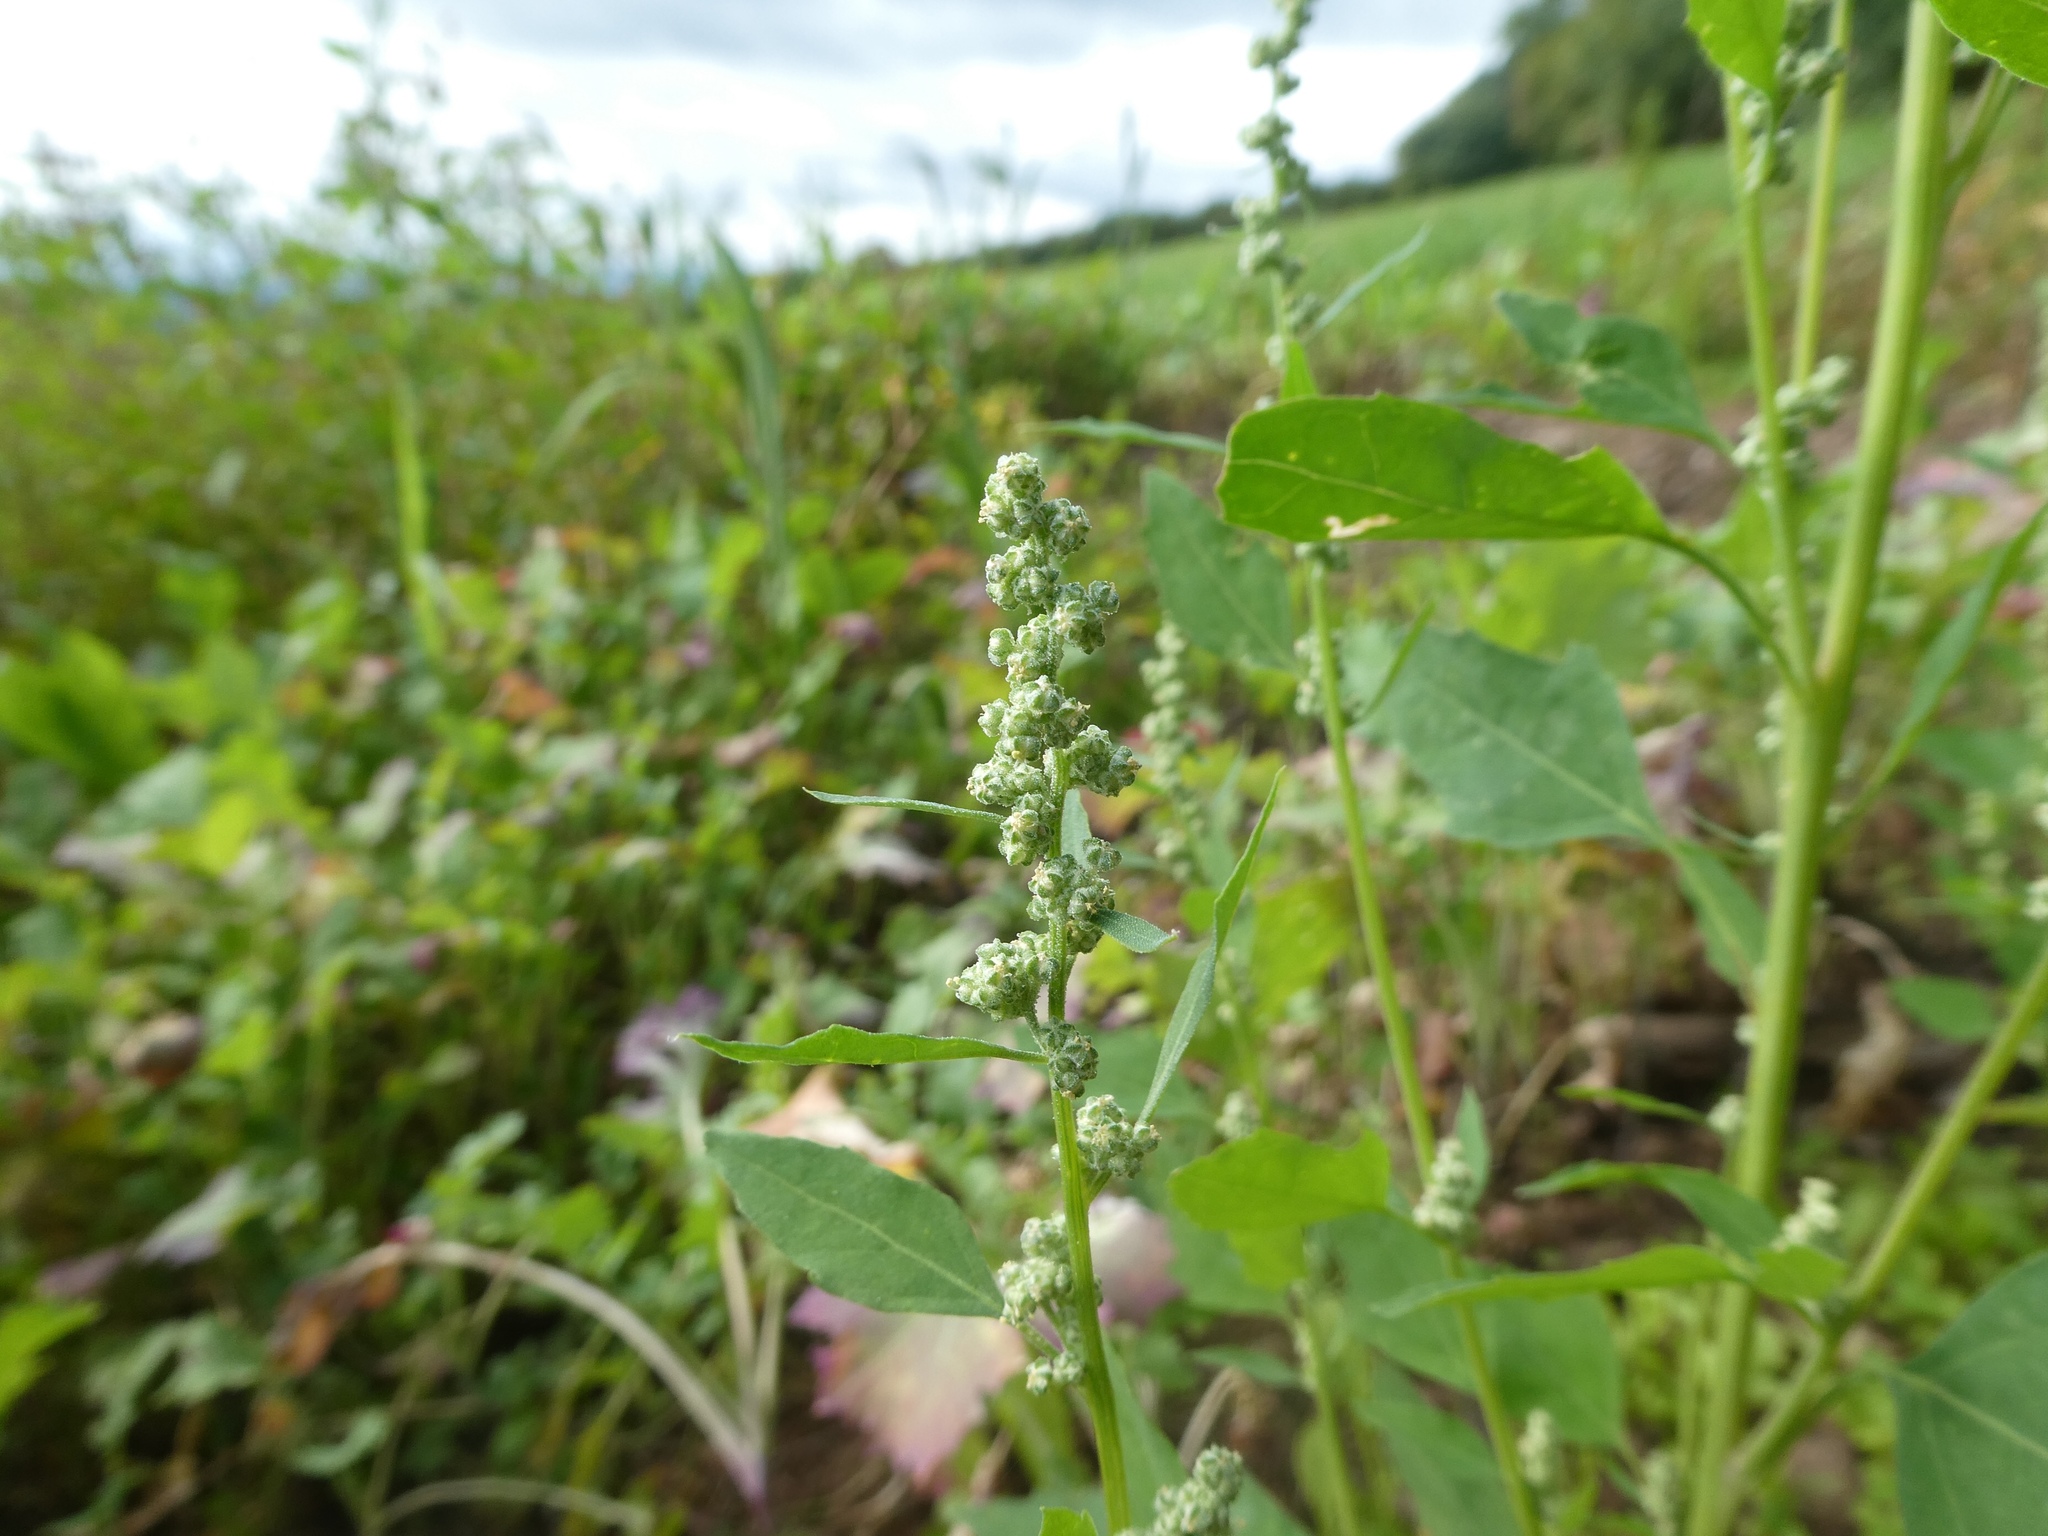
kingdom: Plantae
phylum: Tracheophyta
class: Magnoliopsida
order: Caryophyllales
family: Amaranthaceae
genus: Chenopodium
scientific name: Chenopodium album
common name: Fat-hen
